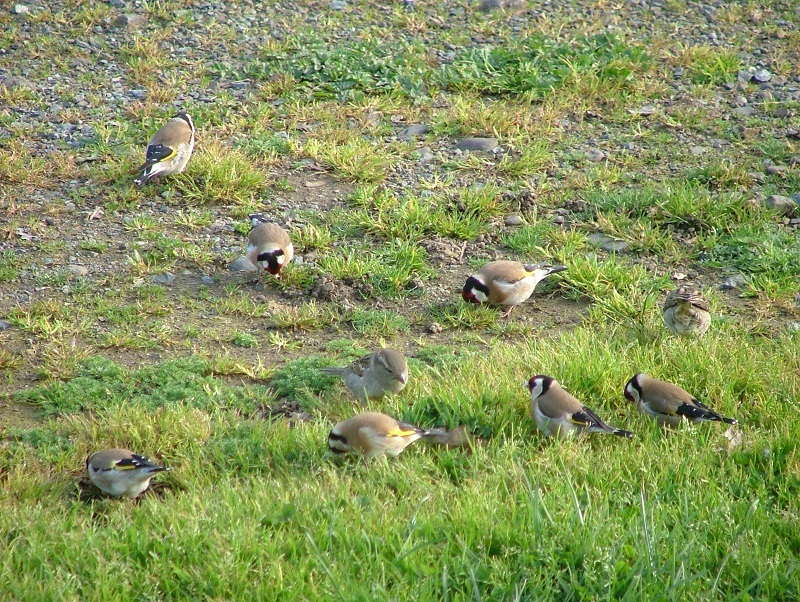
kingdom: Animalia
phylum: Chordata
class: Aves
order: Passeriformes
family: Fringillidae
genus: Carduelis
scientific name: Carduelis carduelis
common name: European goldfinch
